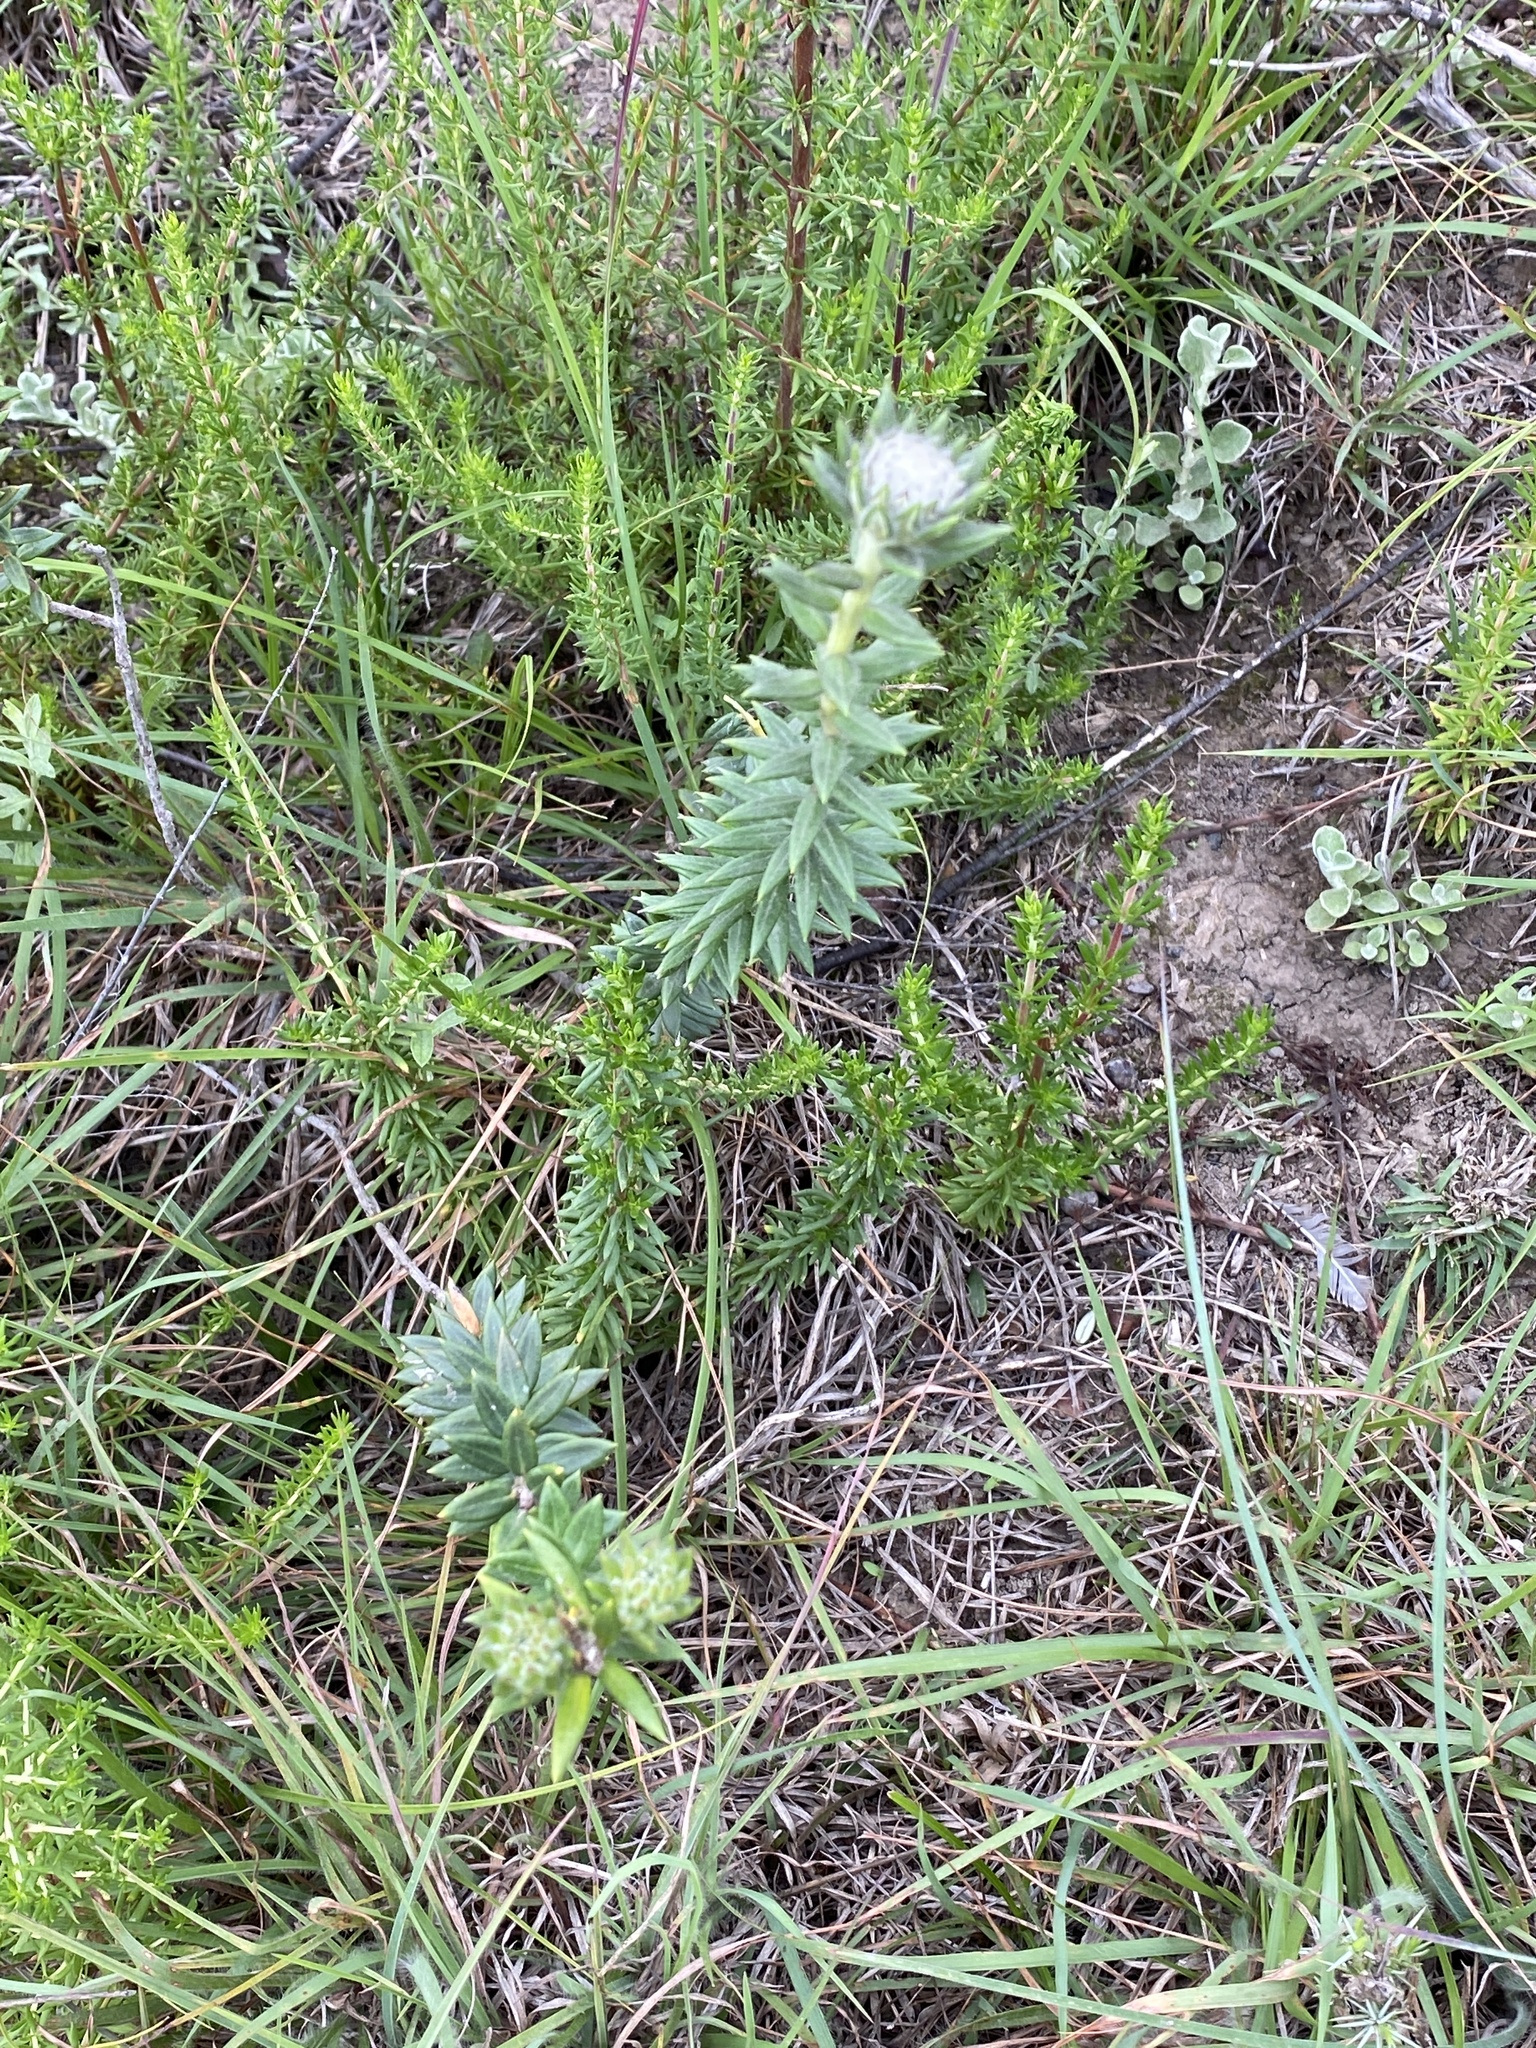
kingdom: Plantae
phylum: Tracheophyta
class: Magnoliopsida
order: Rosales
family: Rhamnaceae
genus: Phylica
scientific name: Phylica propinqua
